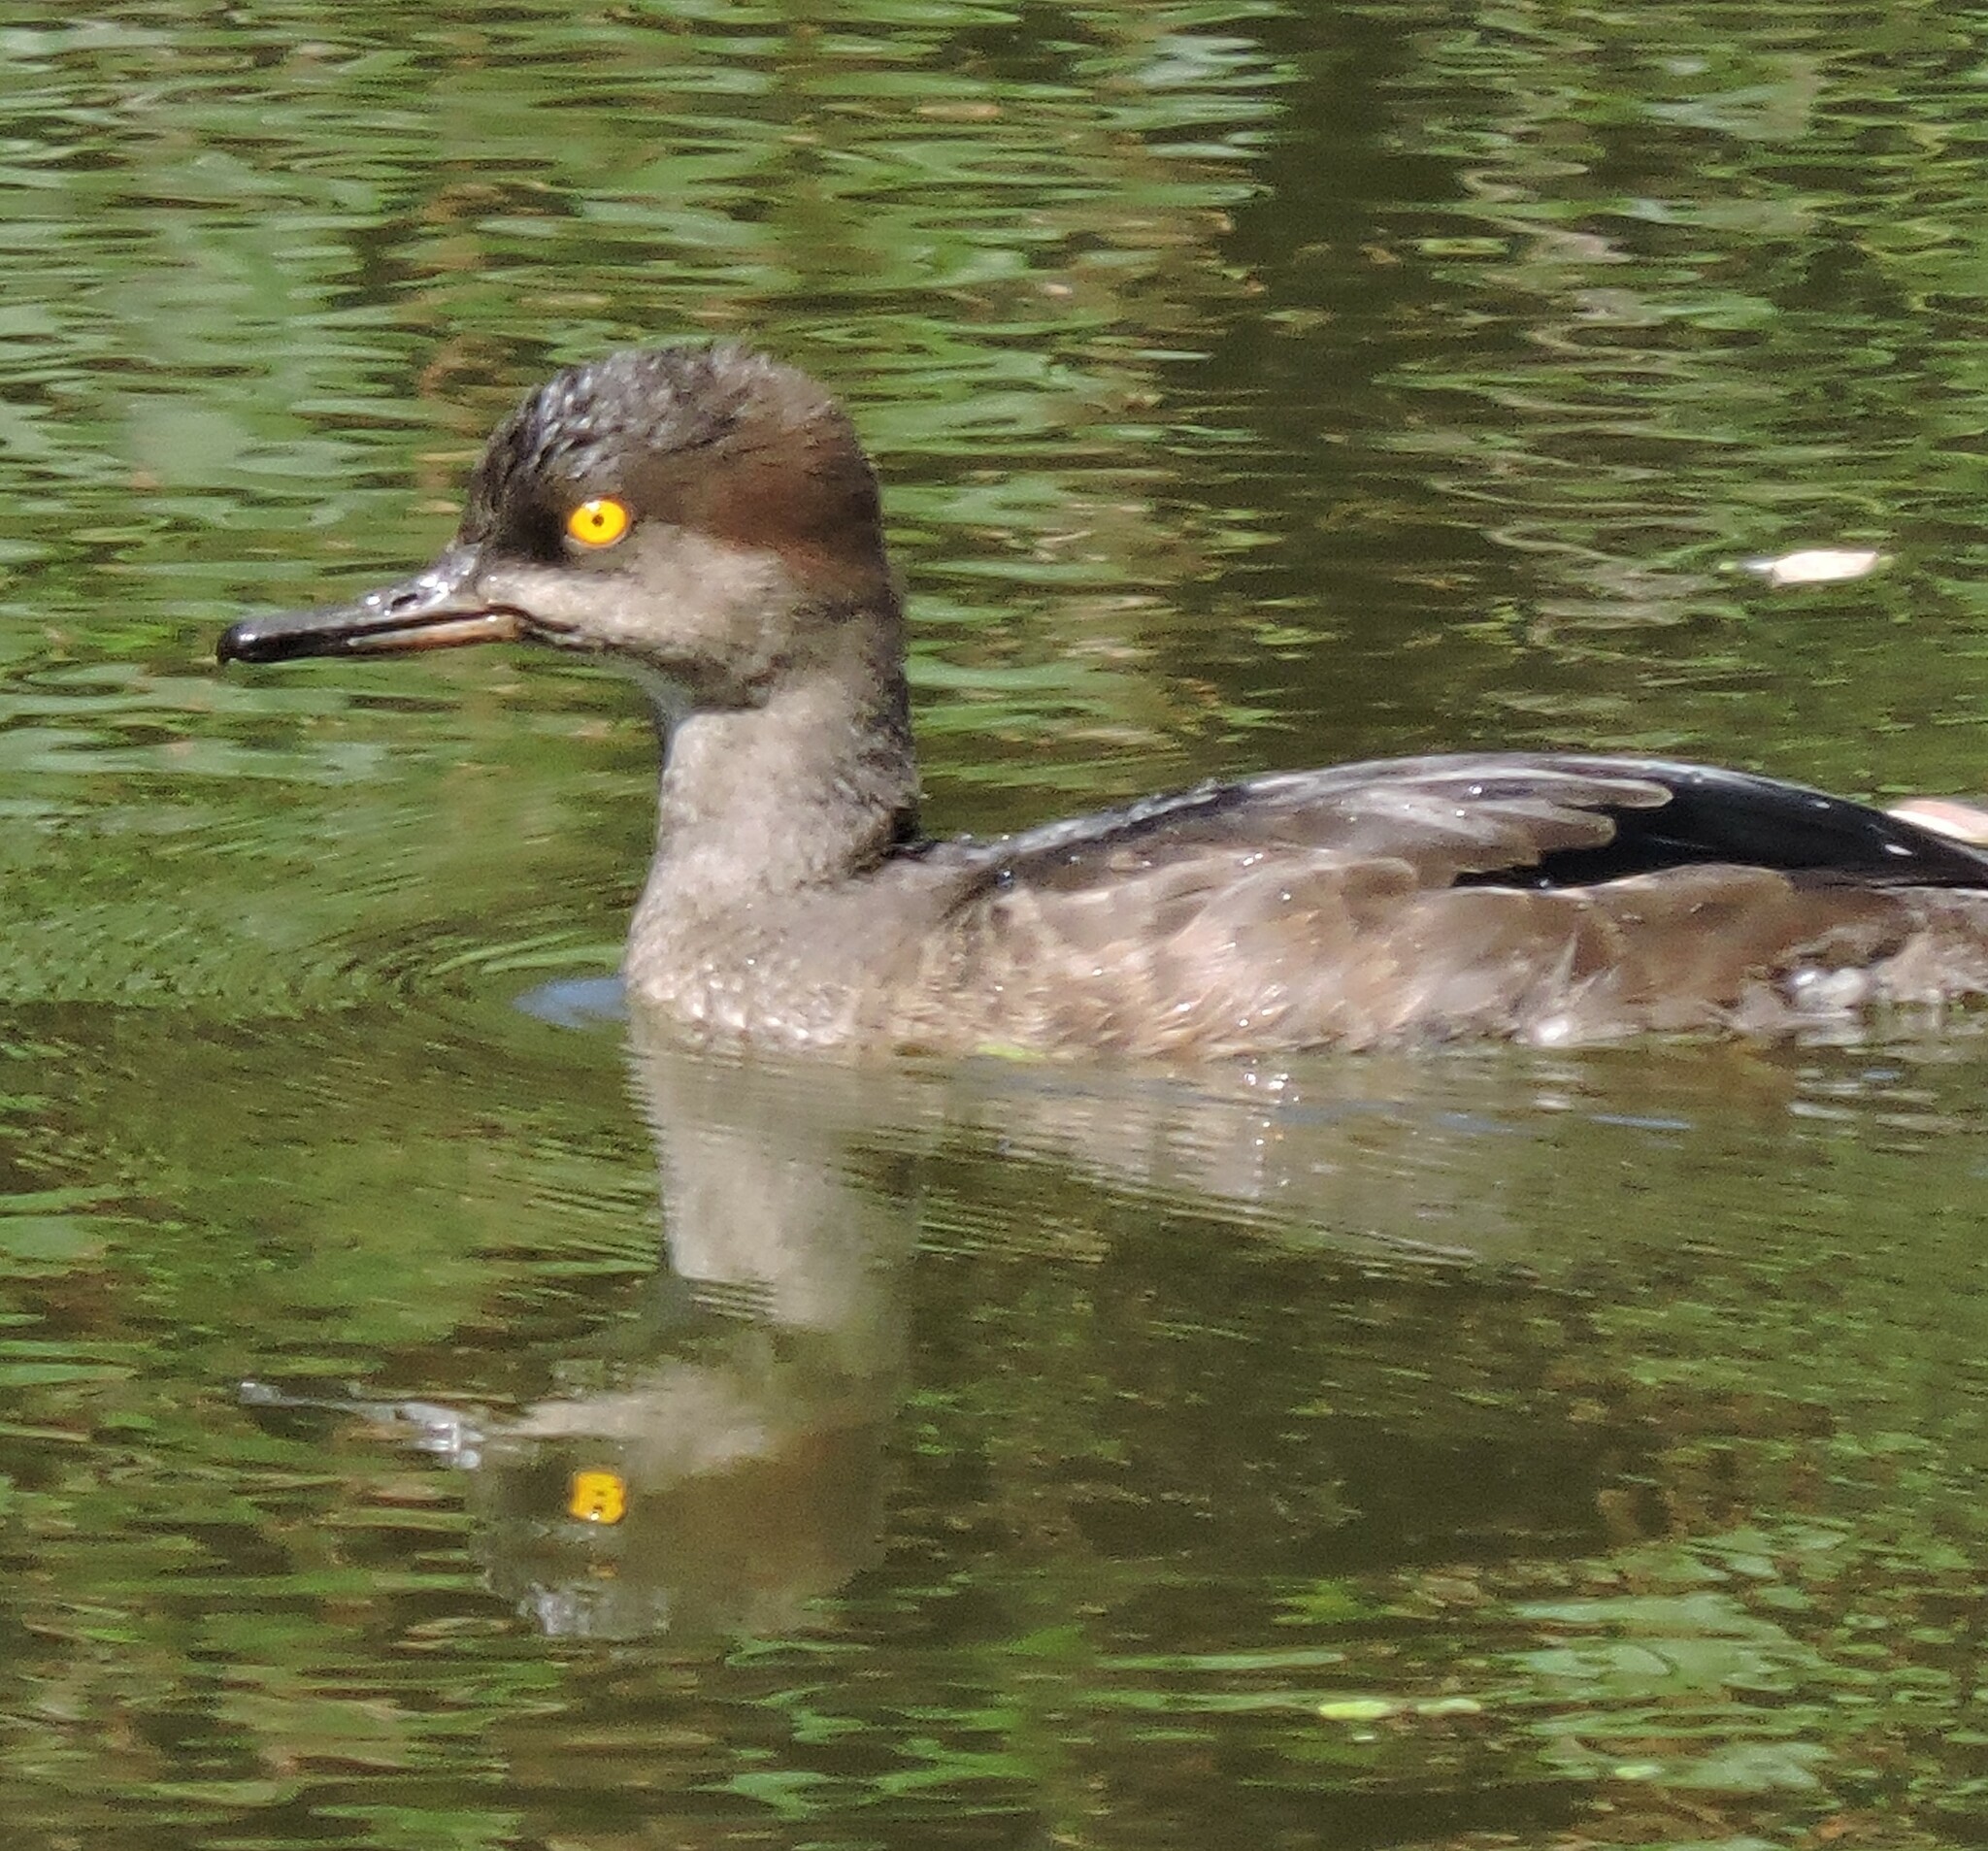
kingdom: Animalia
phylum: Chordata
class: Aves
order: Anseriformes
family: Anatidae
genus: Lophodytes
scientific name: Lophodytes cucullatus
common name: Hooded merganser
